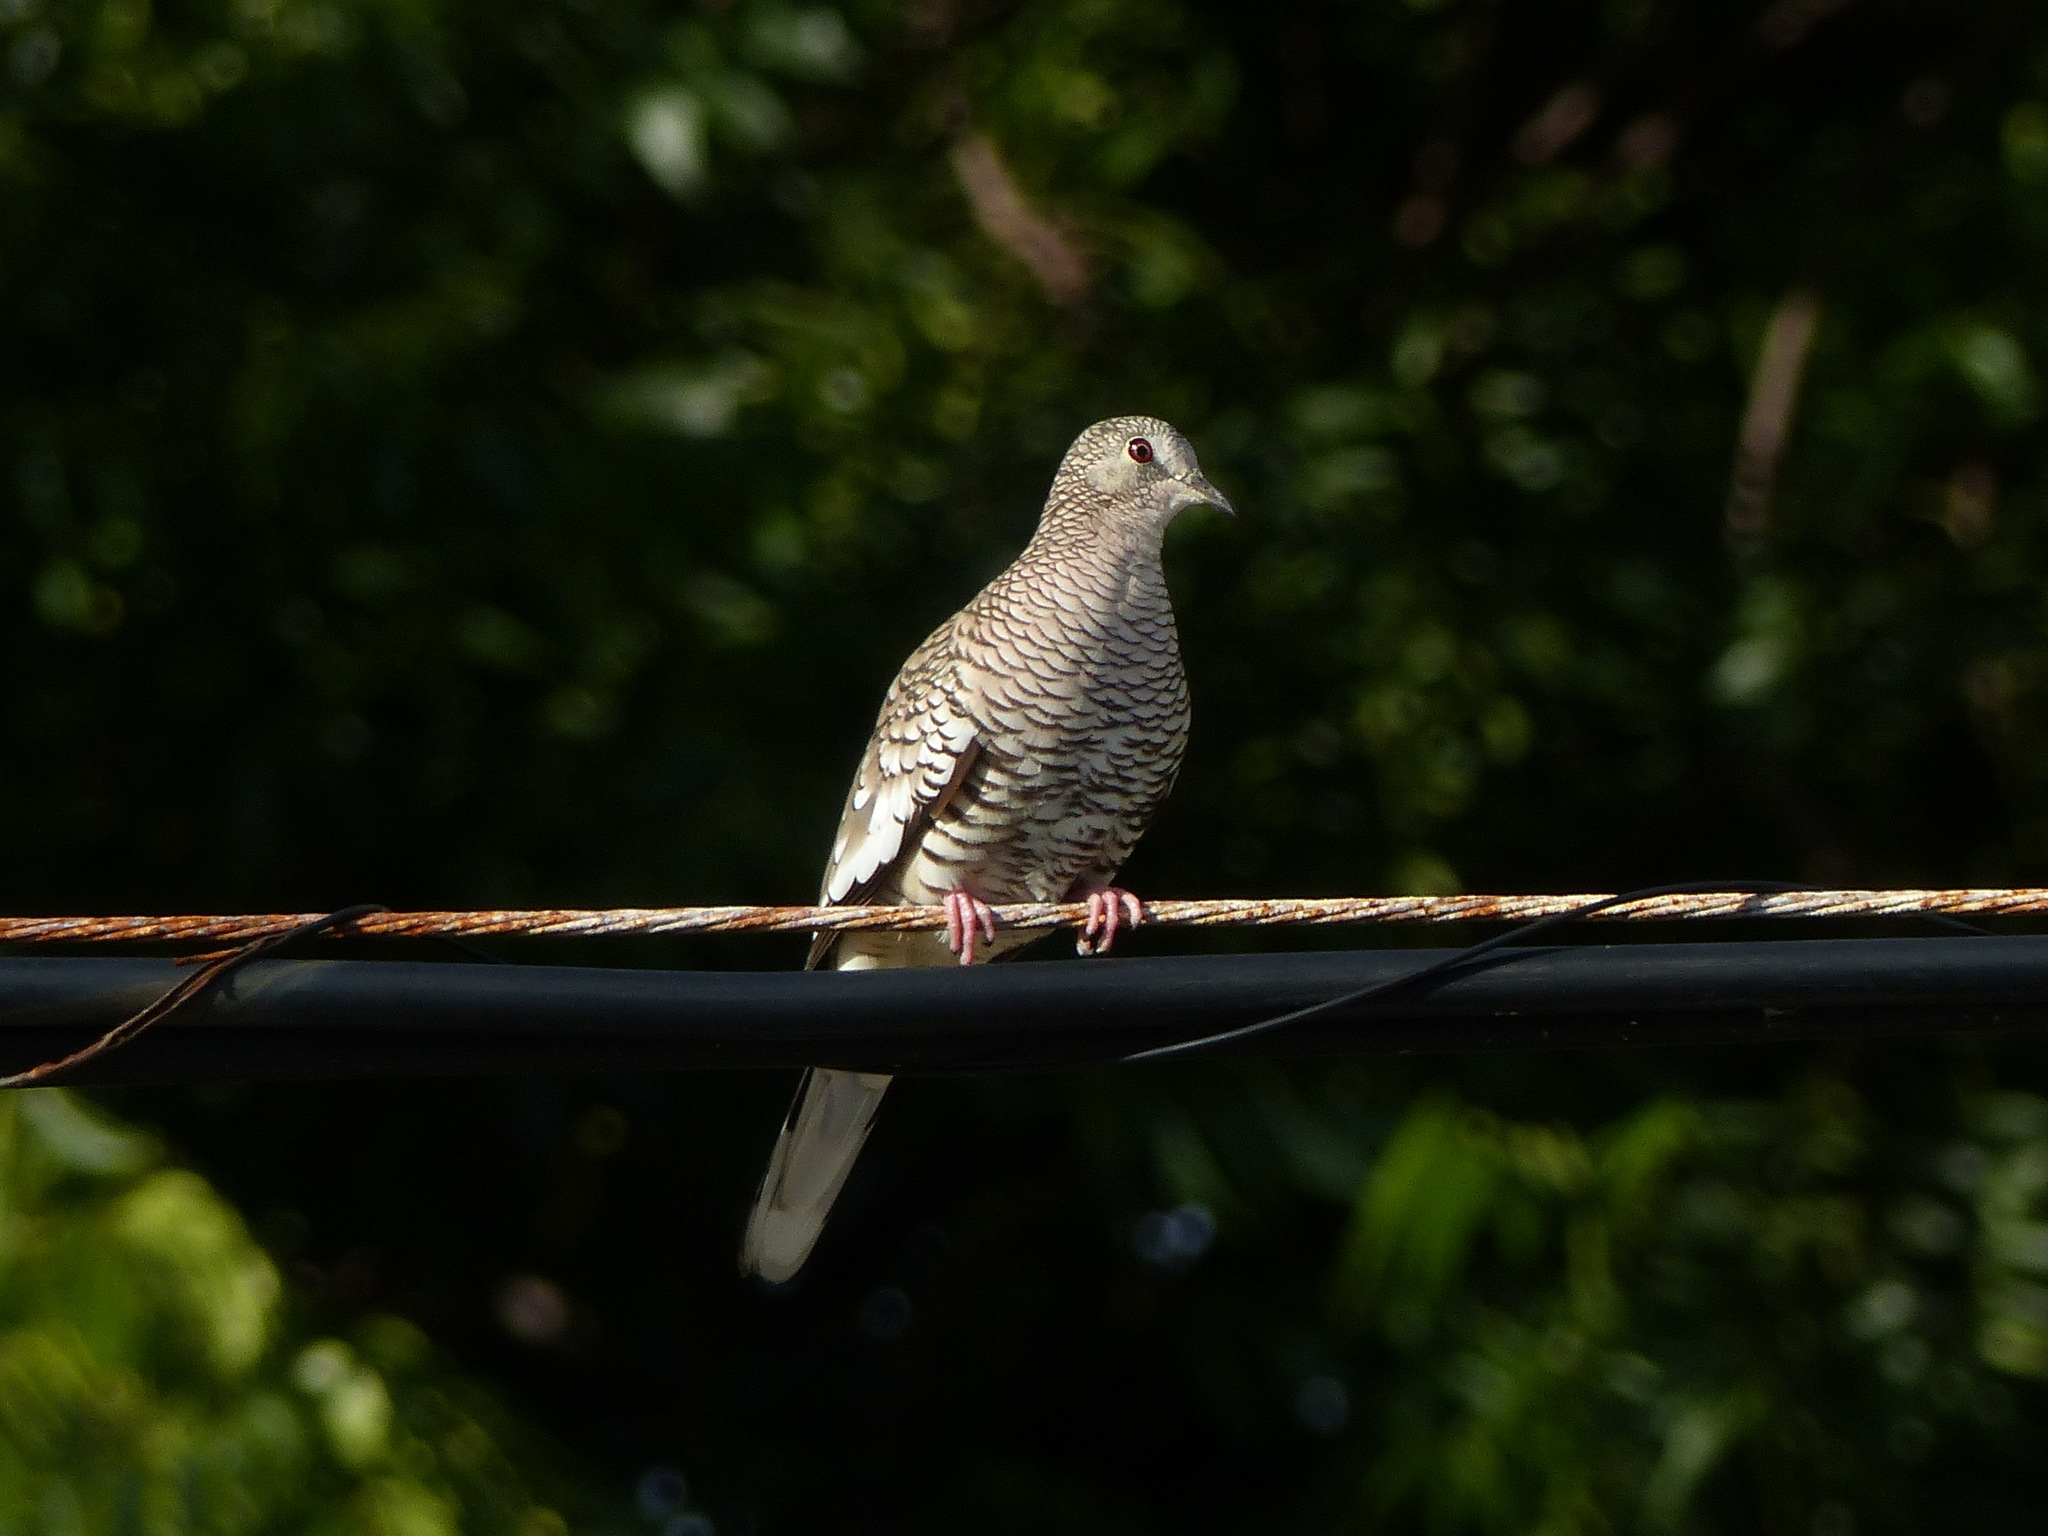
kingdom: Animalia
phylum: Chordata
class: Aves
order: Columbiformes
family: Columbidae
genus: Columbina
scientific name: Columbina squammata
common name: Scaled dove
